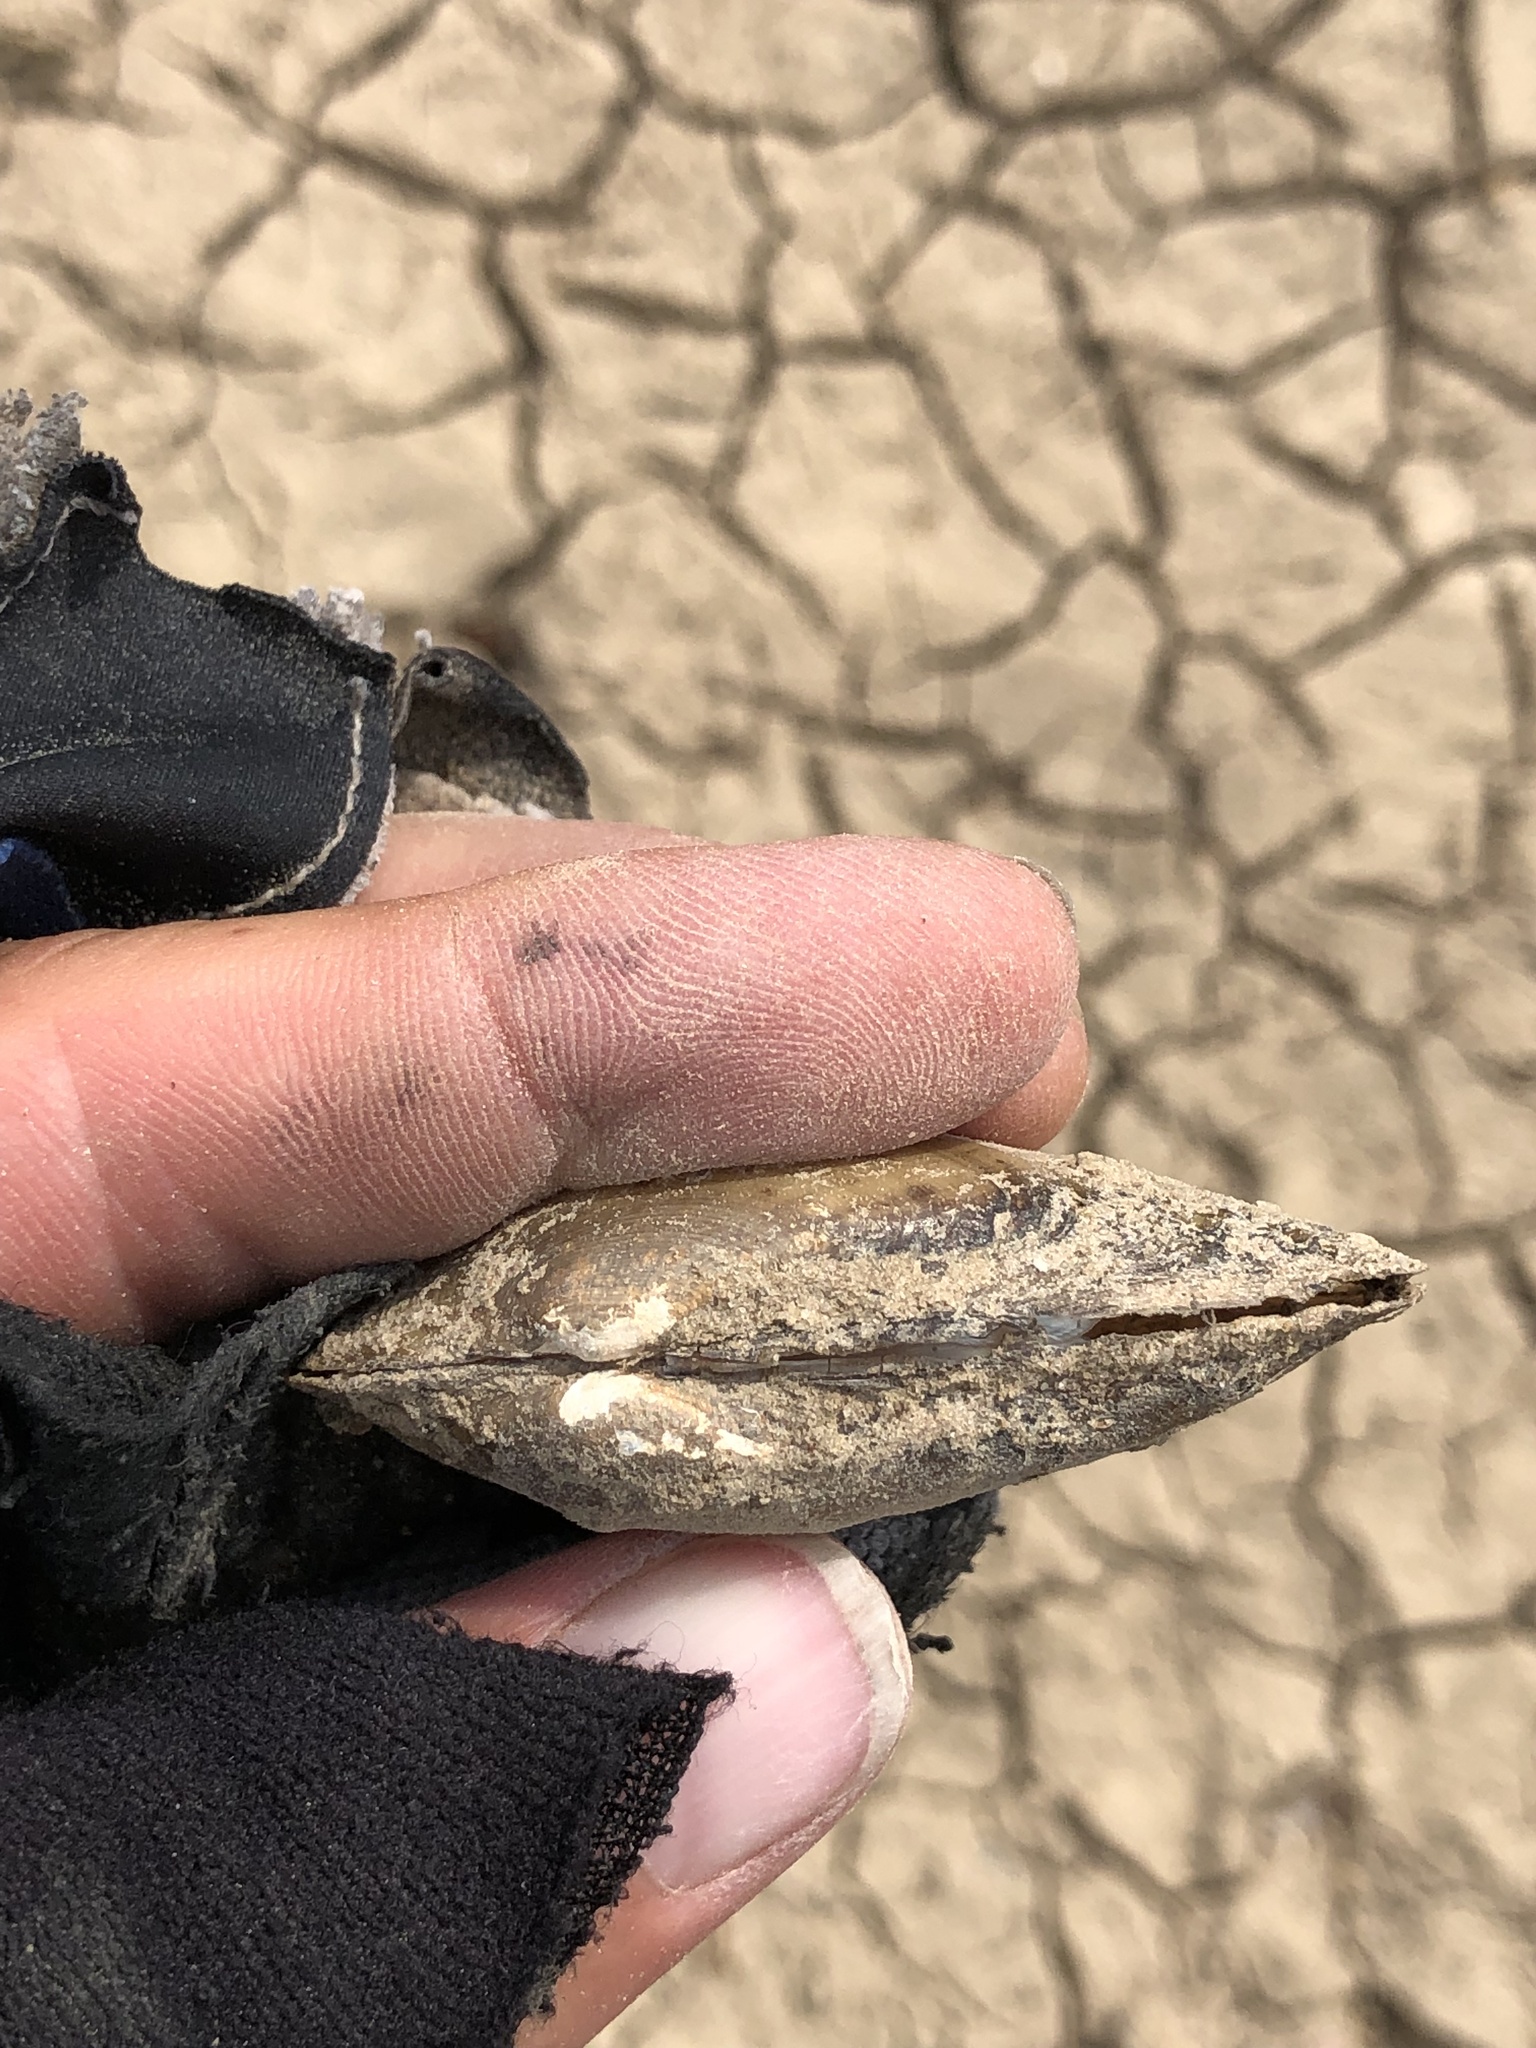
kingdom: Animalia
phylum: Mollusca
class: Bivalvia
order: Unionida
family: Unionidae
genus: Lampsilis
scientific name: Lampsilis teres
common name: Yellow sandshell
